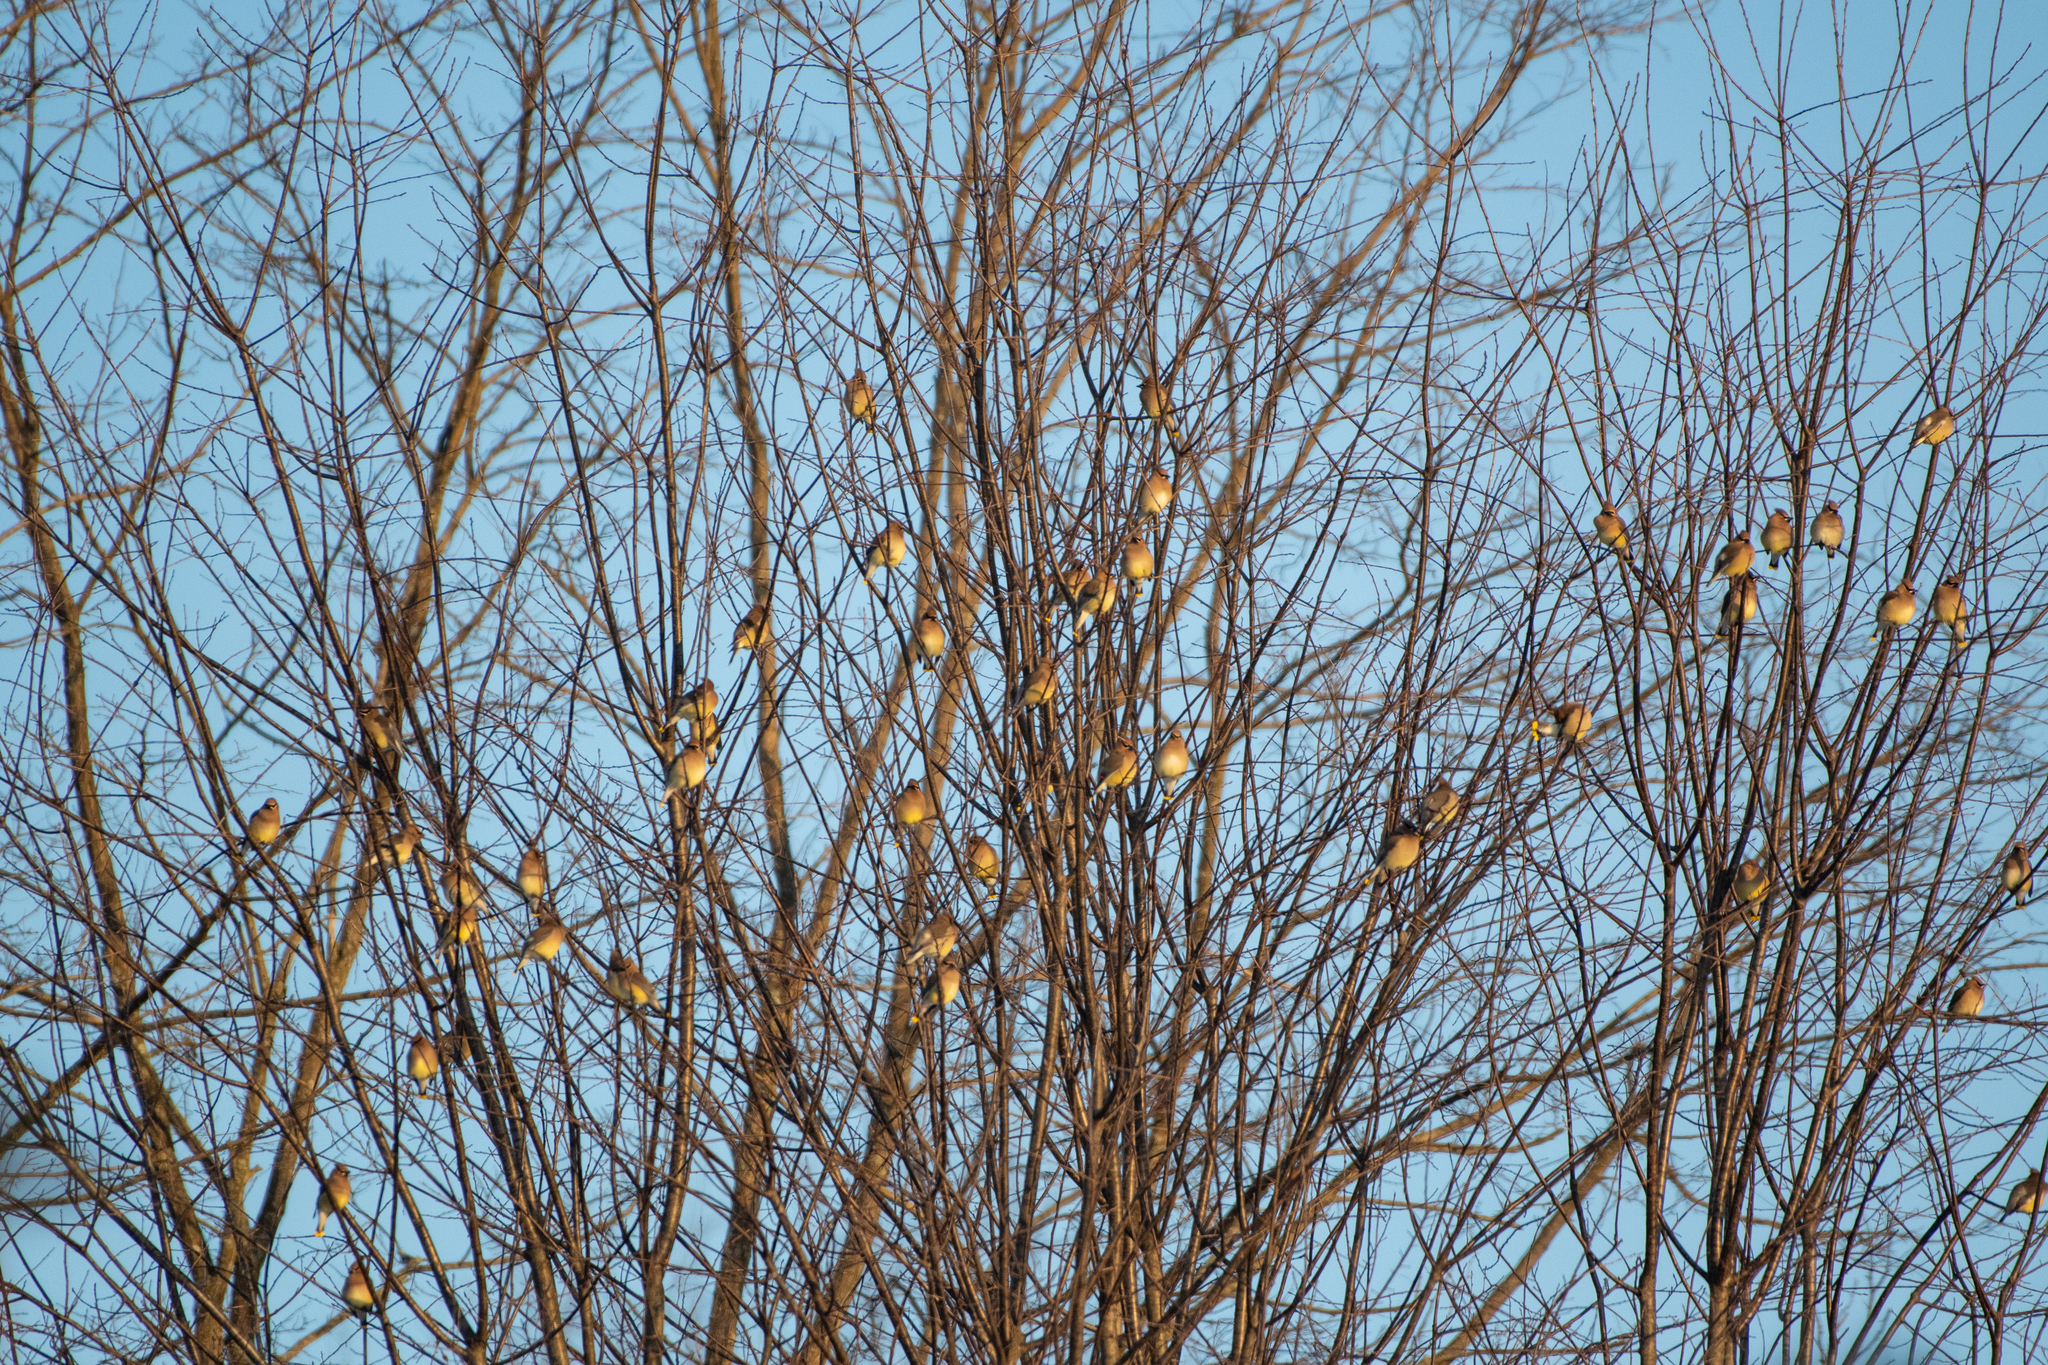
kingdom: Animalia
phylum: Chordata
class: Aves
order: Passeriformes
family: Bombycillidae
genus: Bombycilla
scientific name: Bombycilla cedrorum
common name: Cedar waxwing
